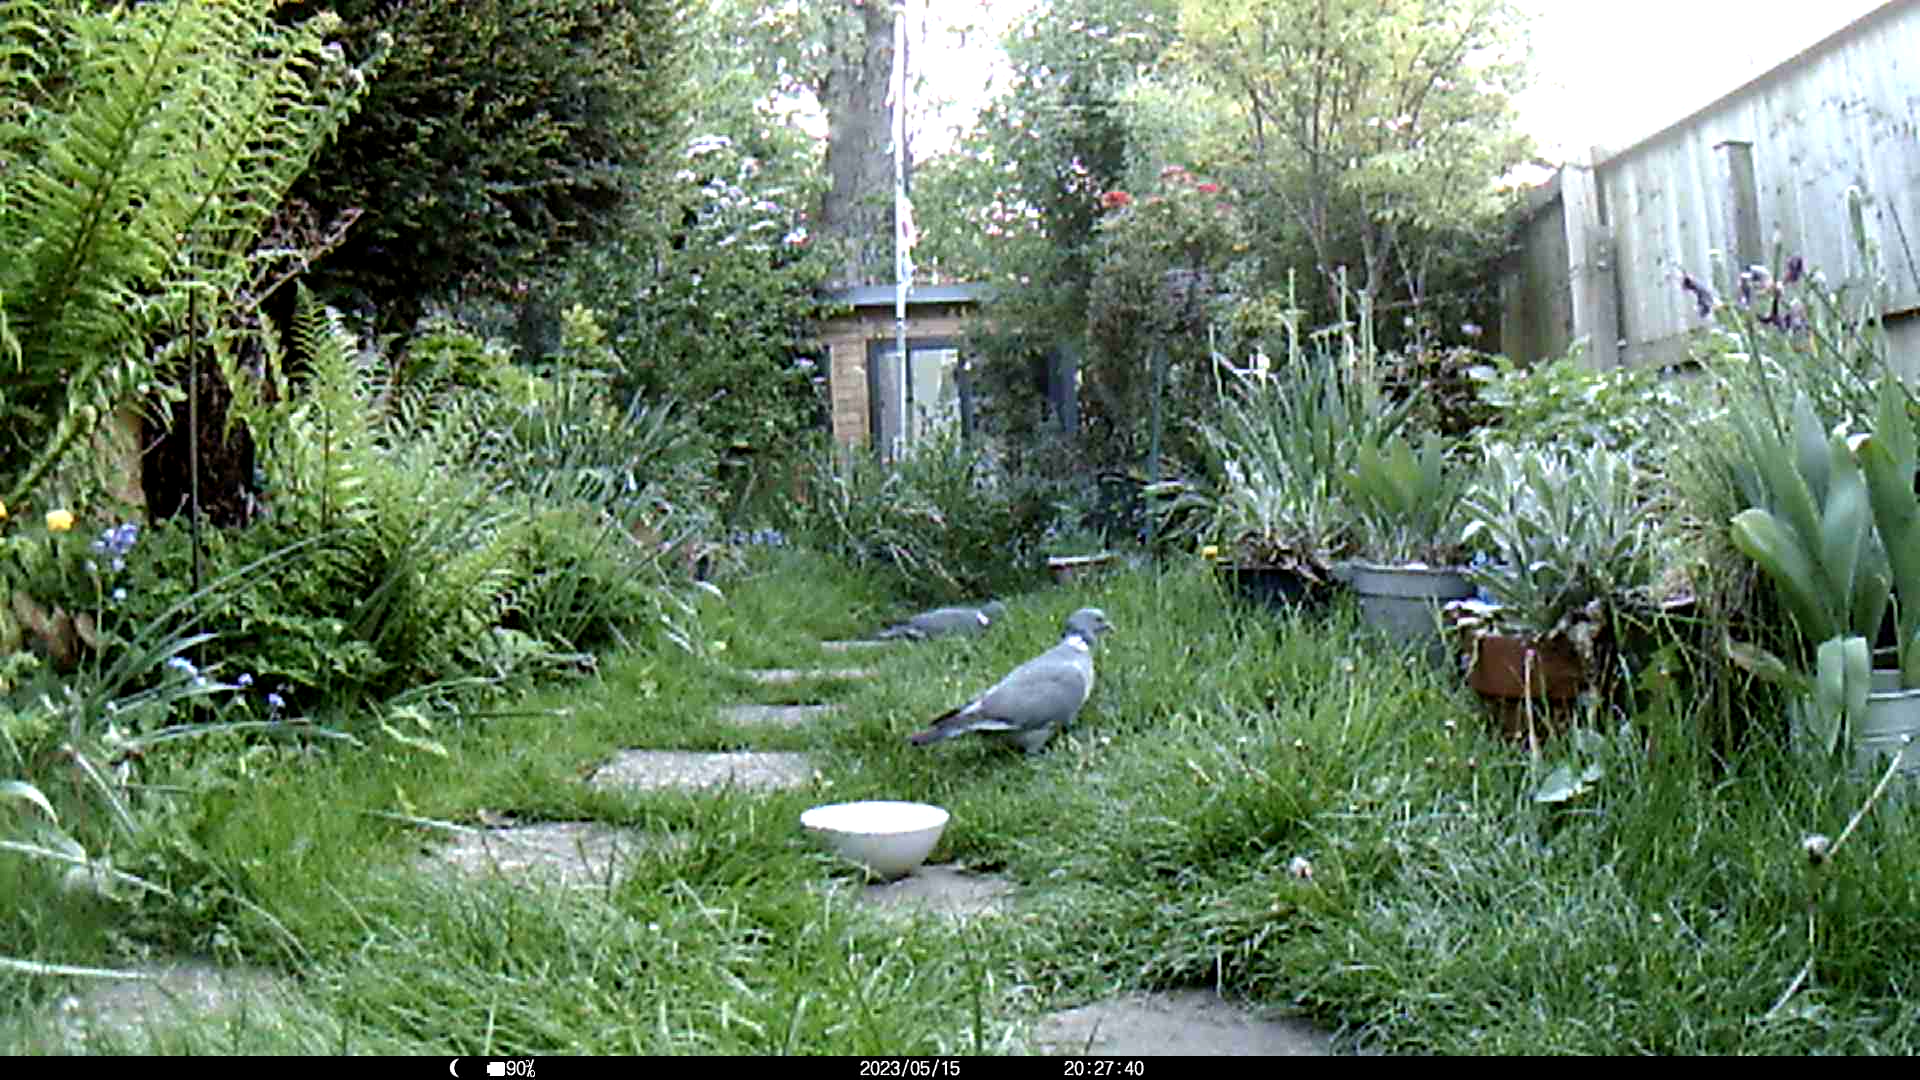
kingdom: Animalia
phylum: Chordata
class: Aves
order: Columbiformes
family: Columbidae
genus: Columba
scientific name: Columba palumbus
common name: Common wood pigeon
